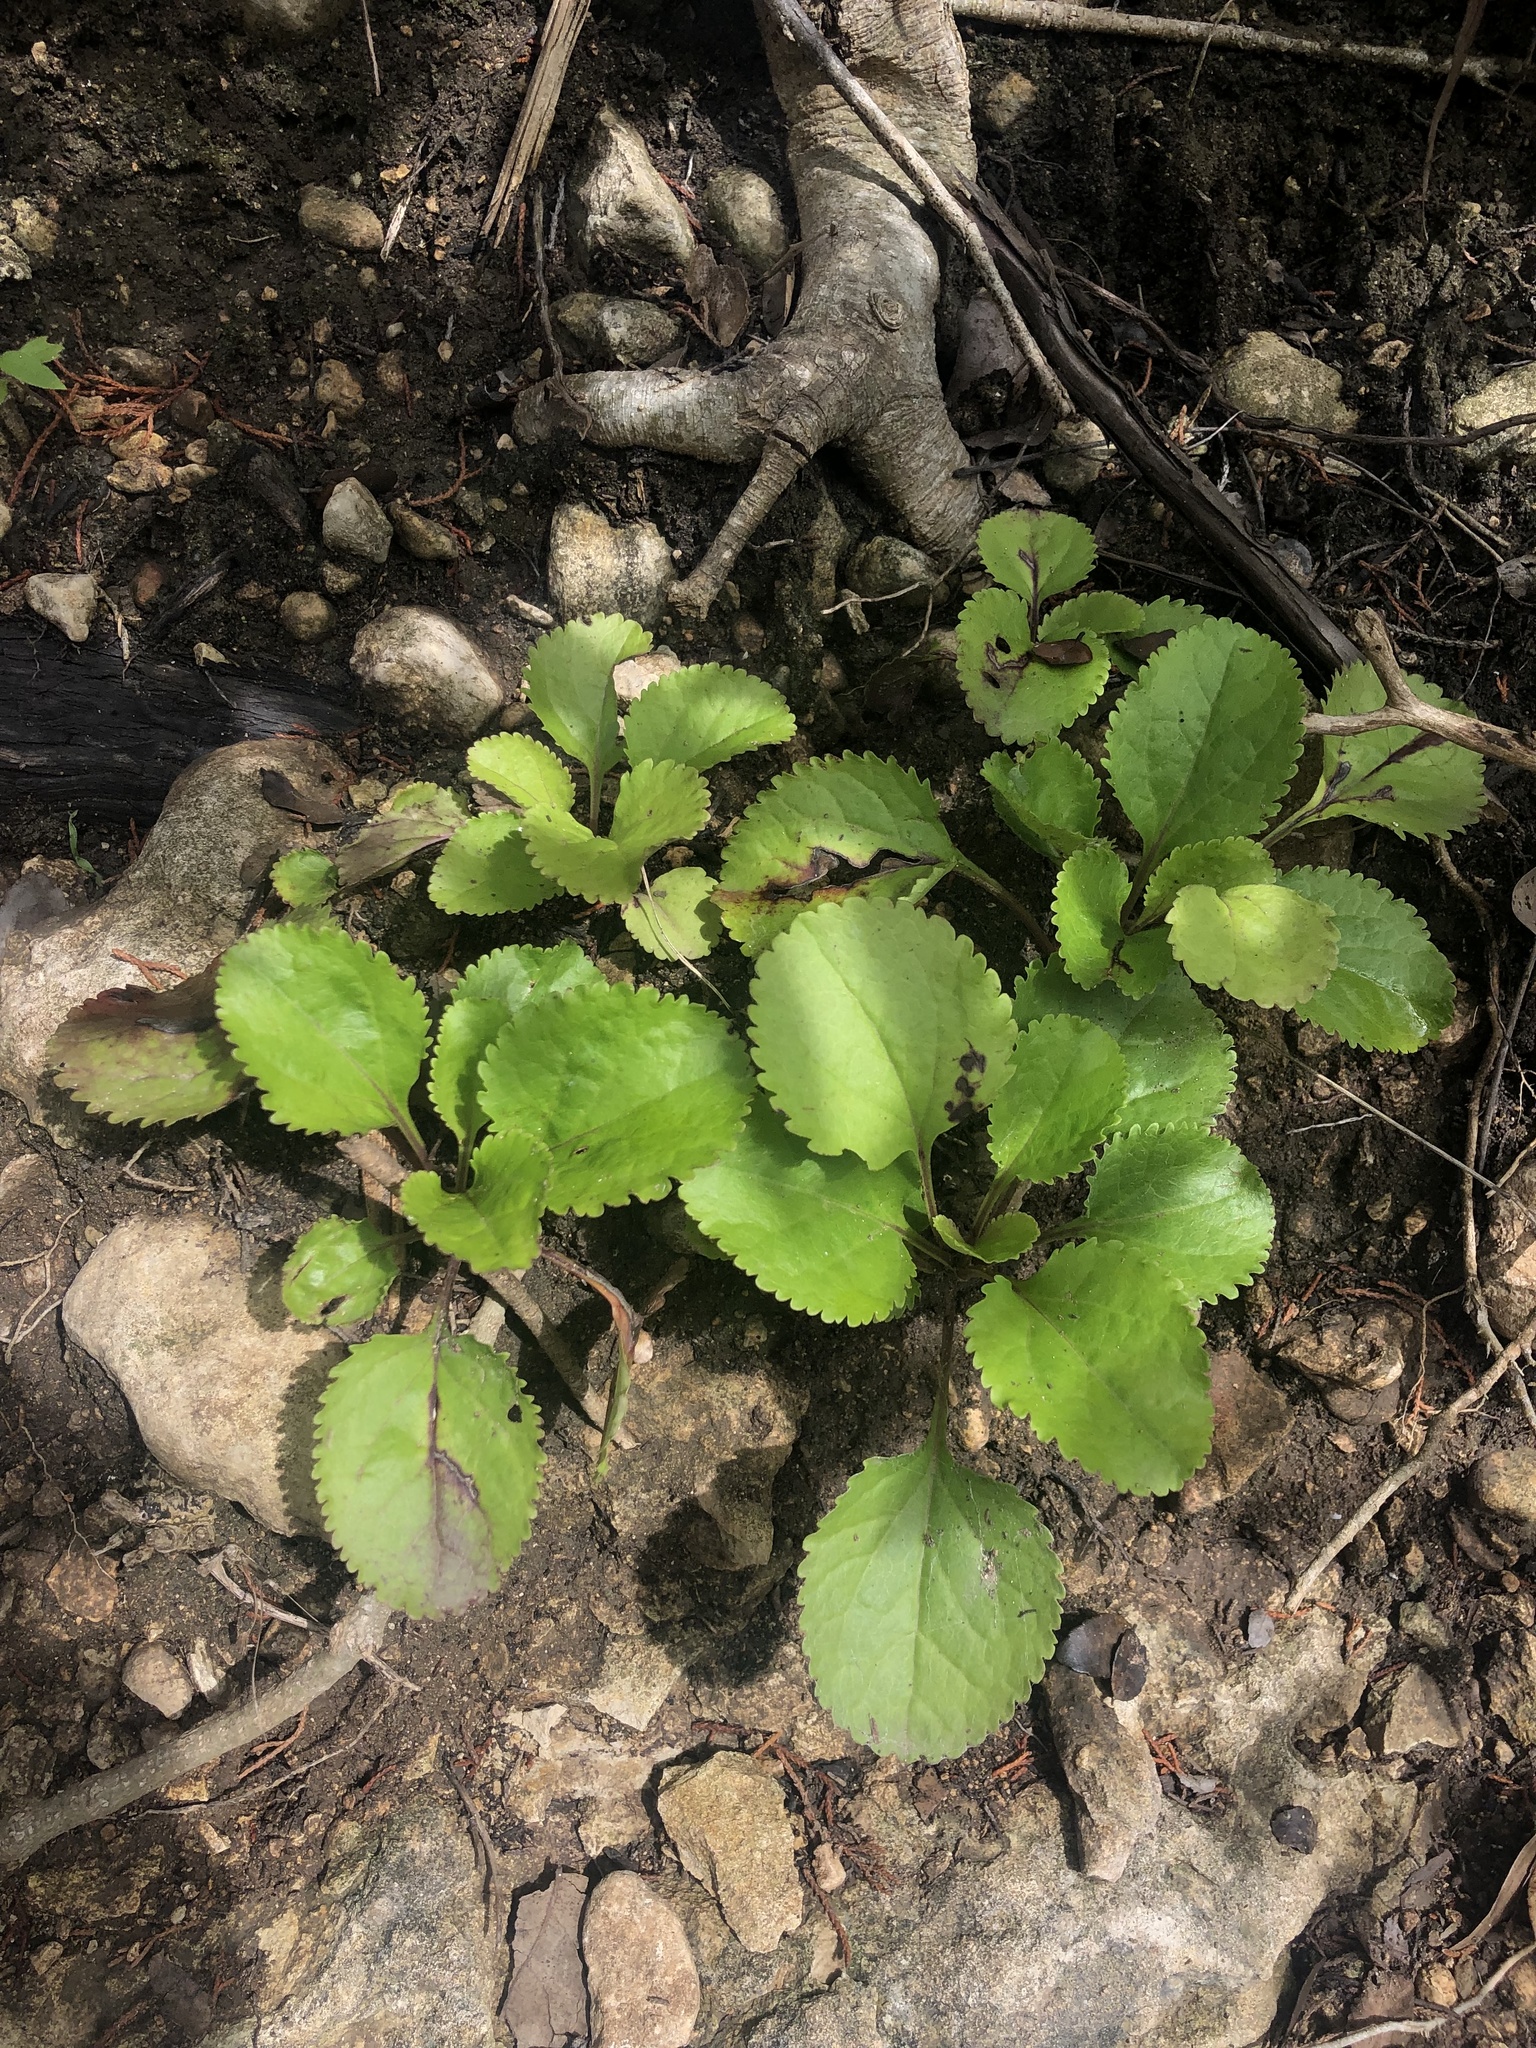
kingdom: Plantae
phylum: Tracheophyta
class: Magnoliopsida
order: Asterales
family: Asteraceae
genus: Packera
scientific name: Packera obovata
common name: Round-leaf ragwort
